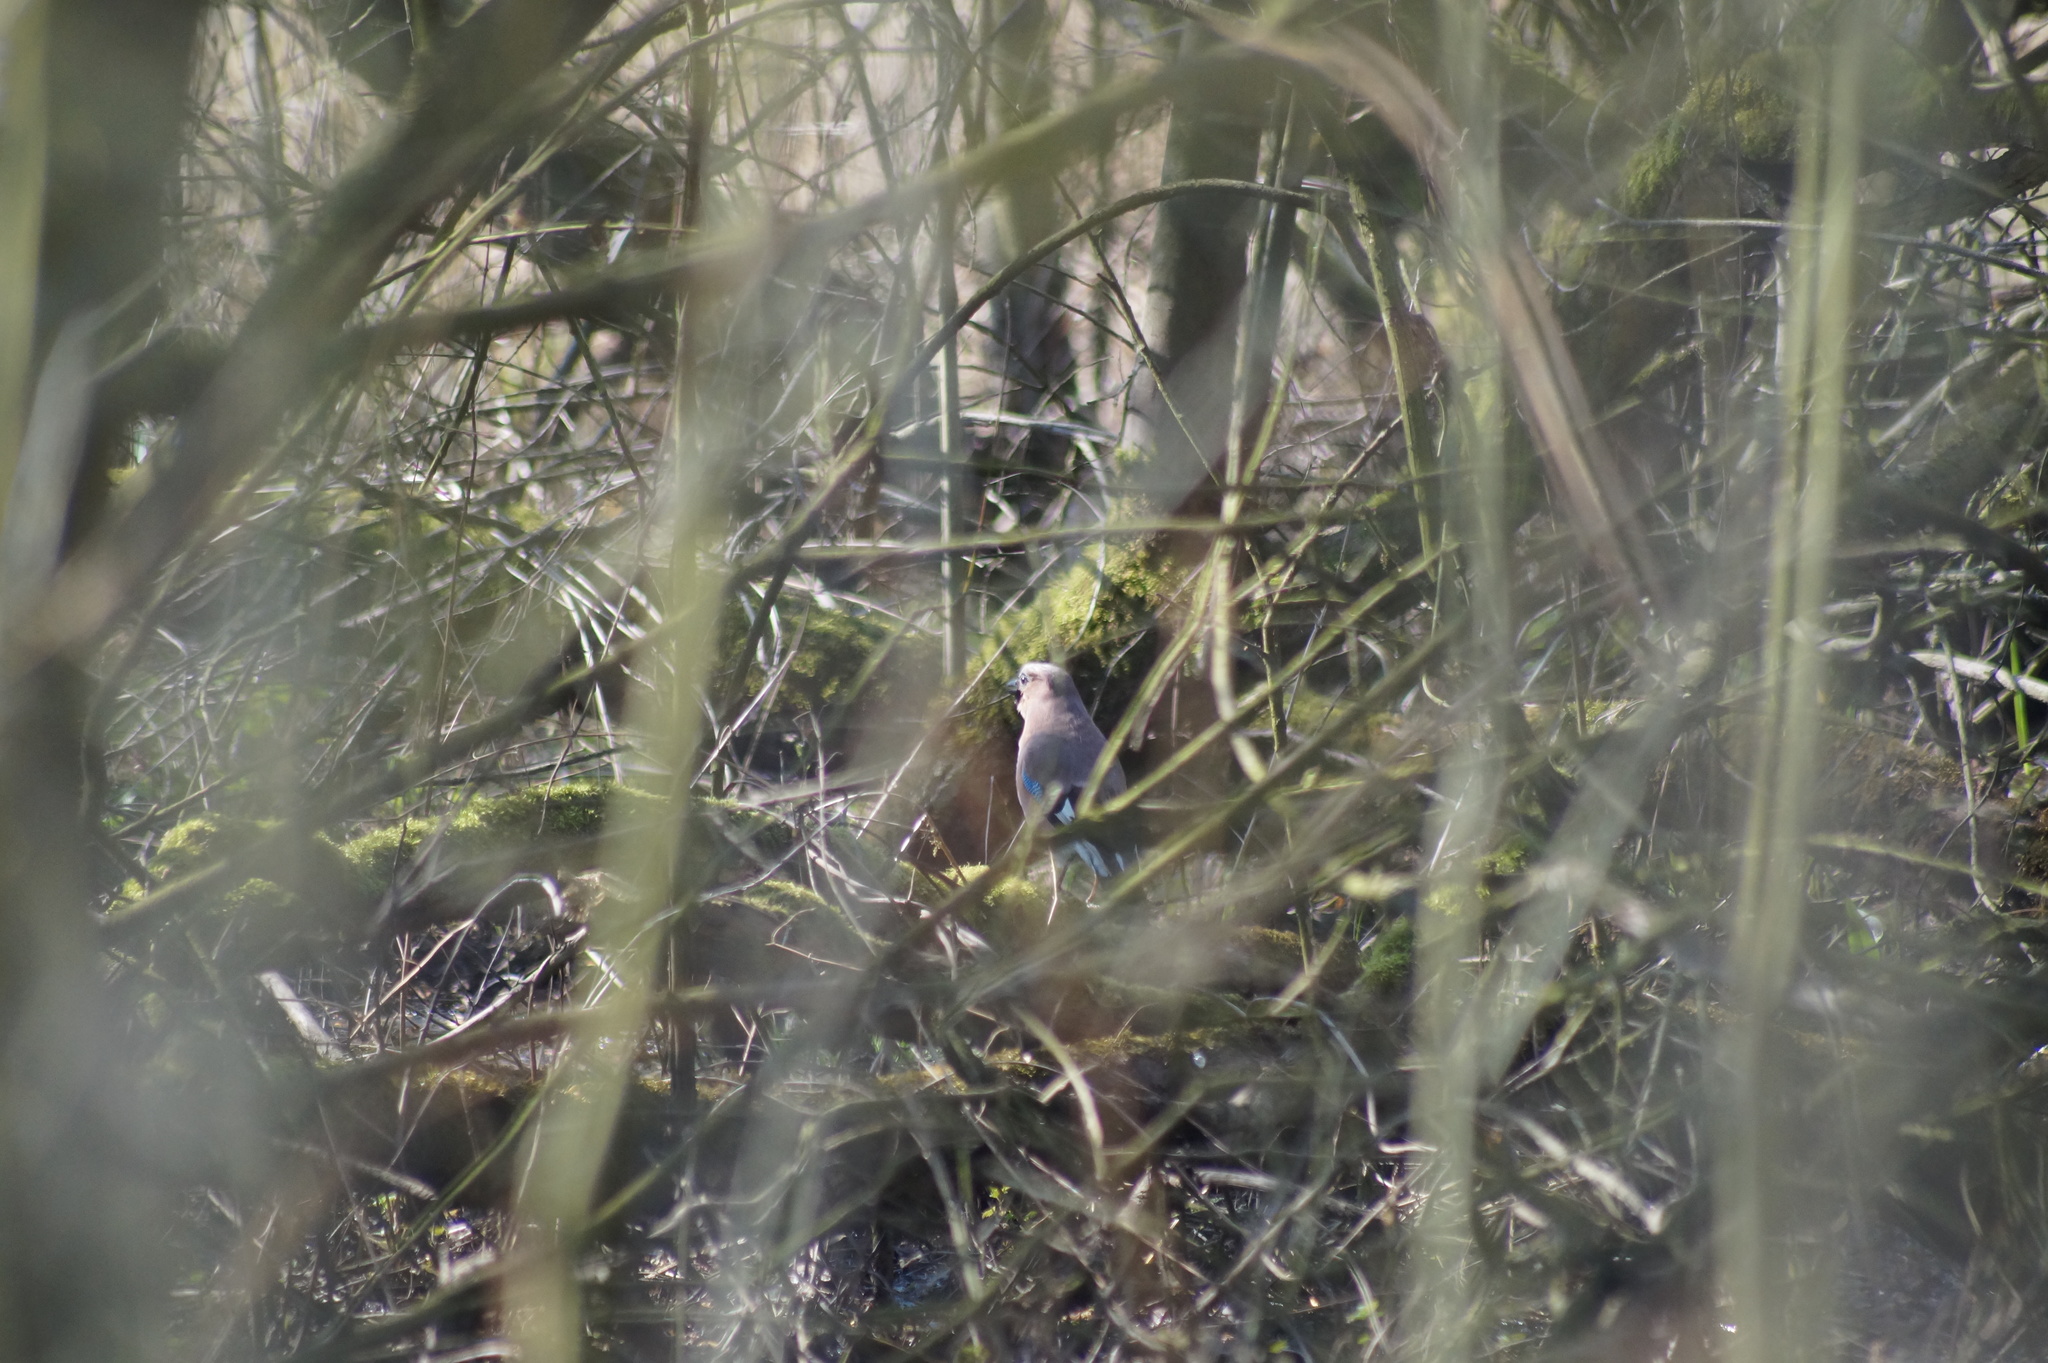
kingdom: Animalia
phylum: Chordata
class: Aves
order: Passeriformes
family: Corvidae
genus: Garrulus
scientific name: Garrulus glandarius
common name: Eurasian jay
